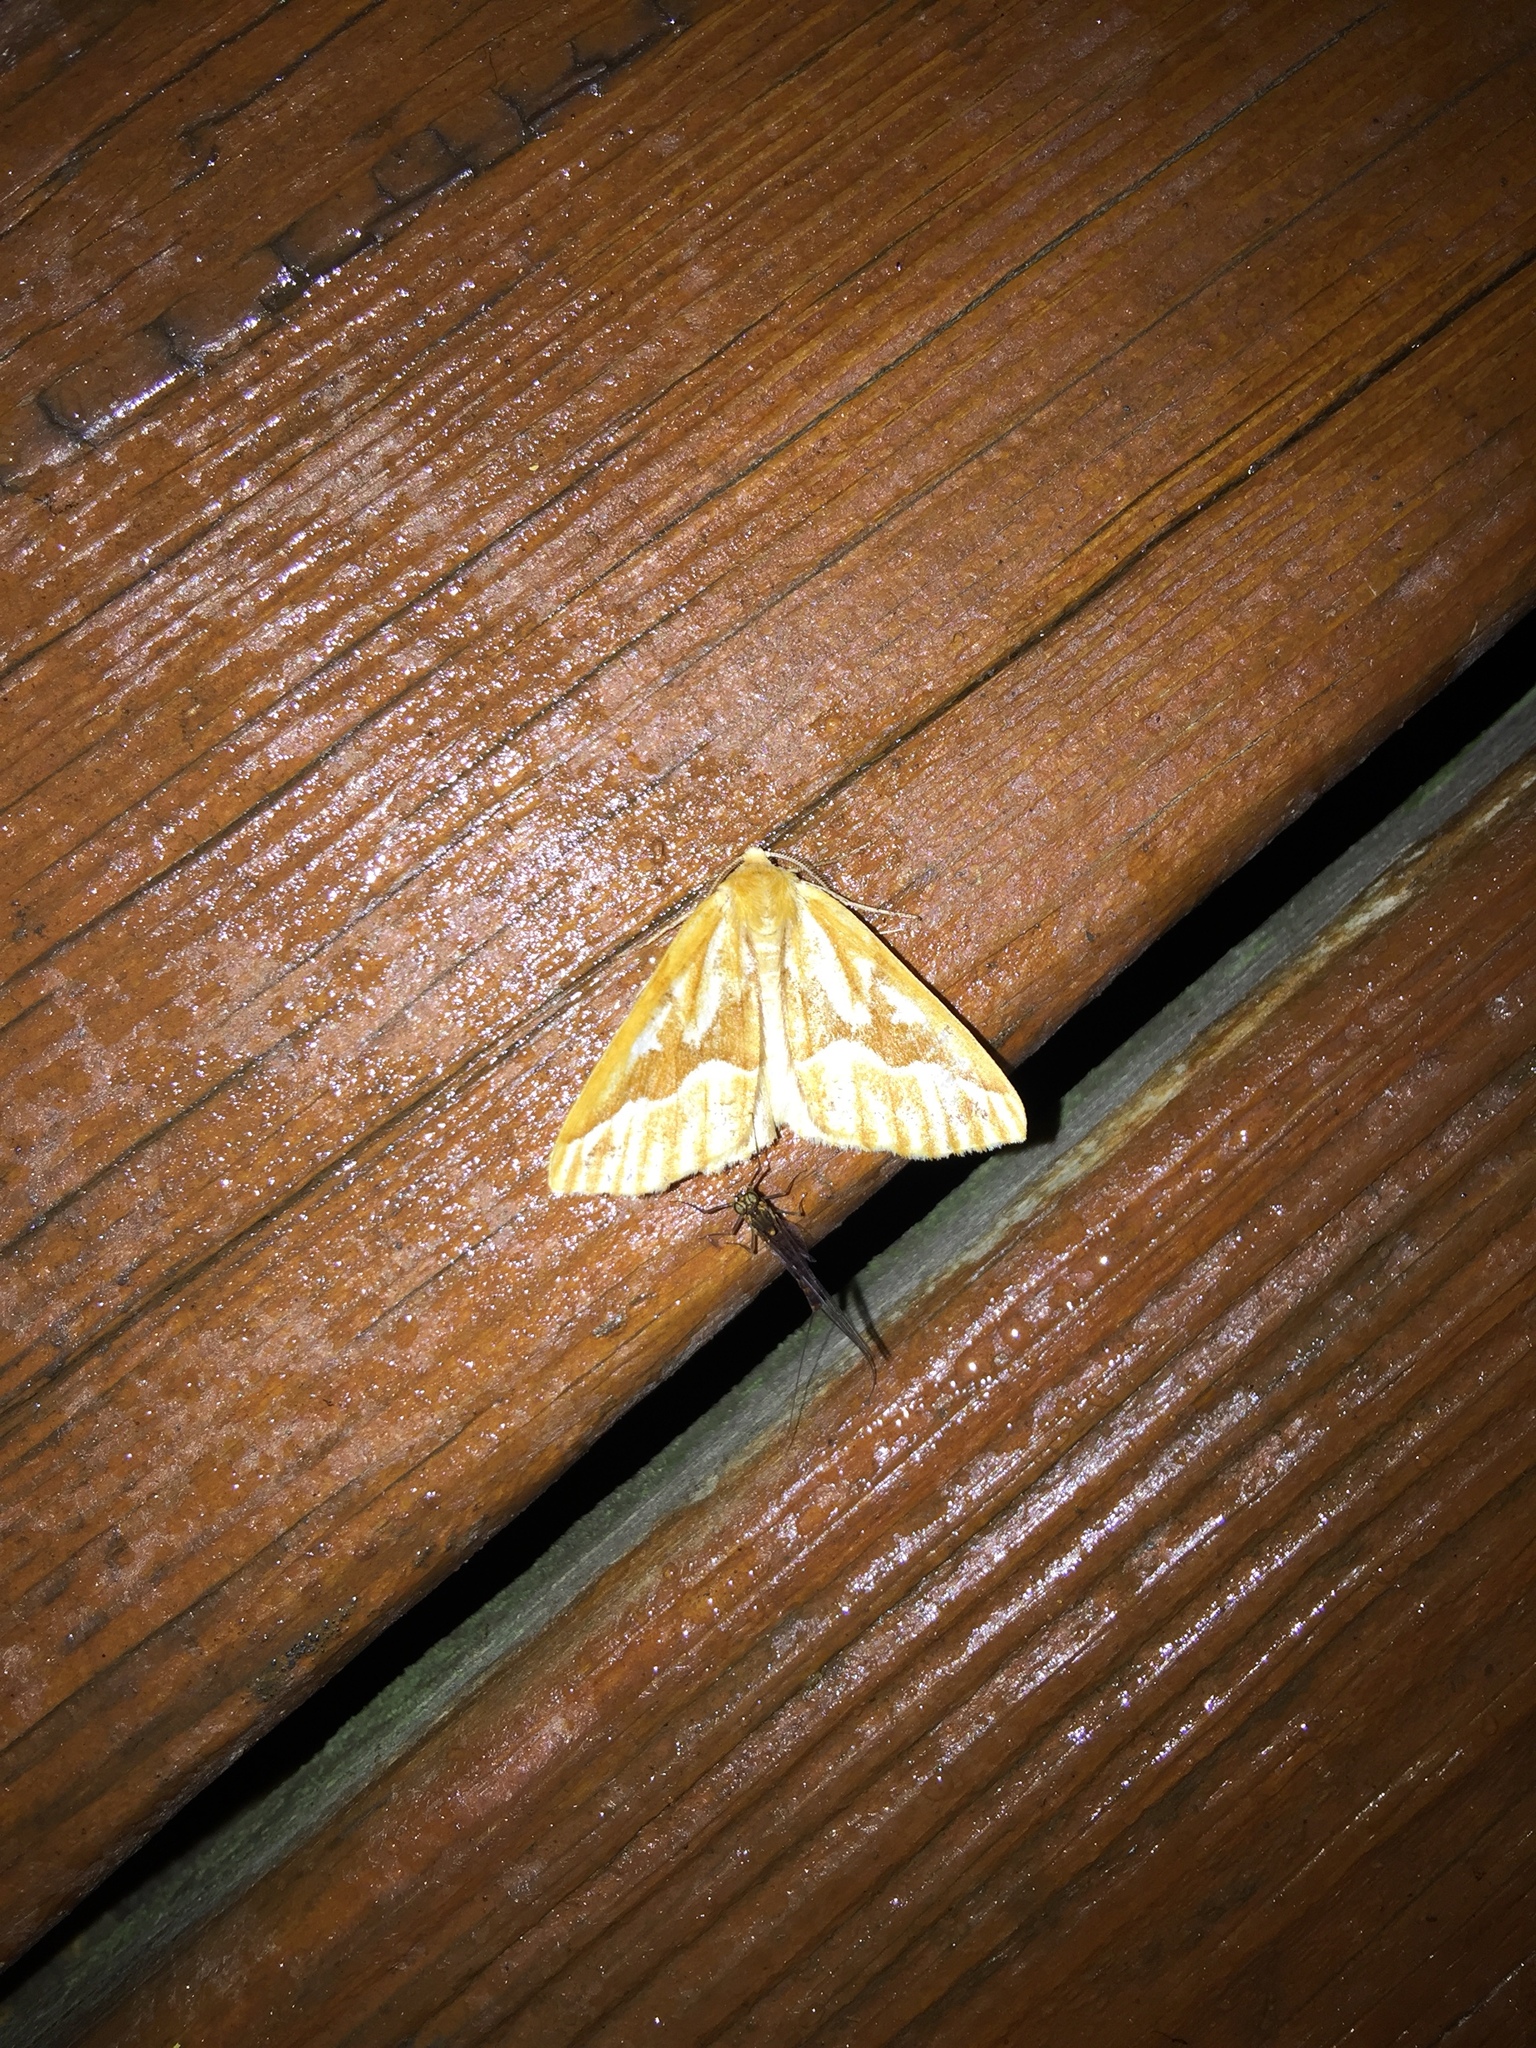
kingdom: Animalia
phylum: Arthropoda
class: Insecta
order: Lepidoptera
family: Geometridae
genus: Caripeta
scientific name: Caripeta piniata
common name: Northern pine looper moth
